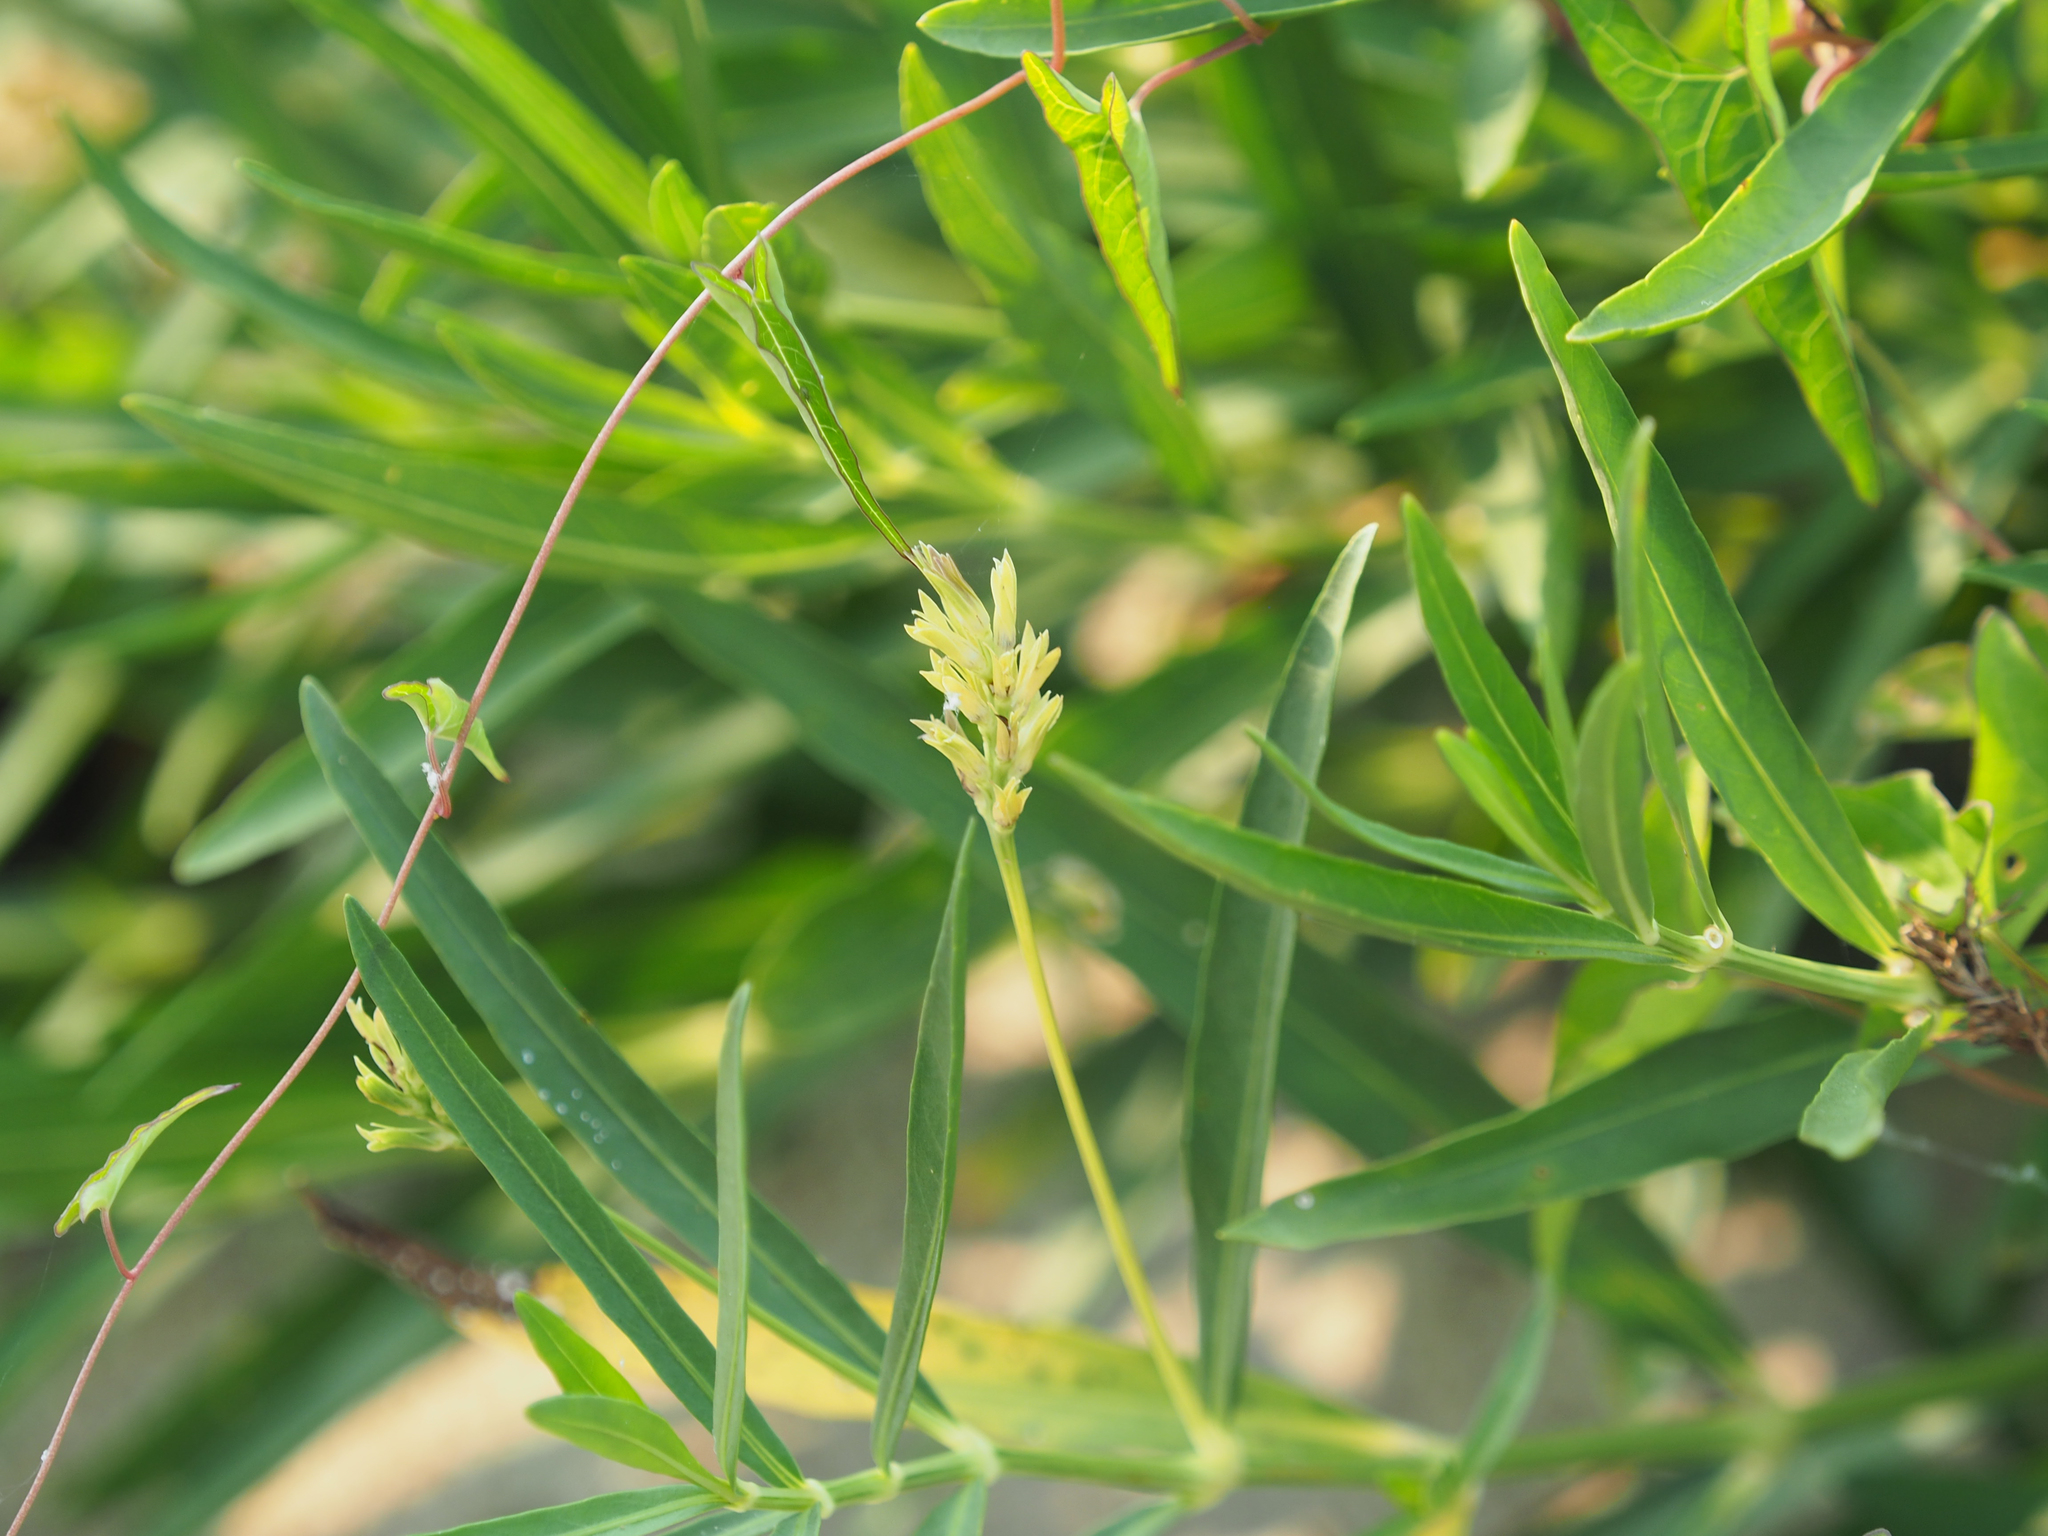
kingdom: Plantae
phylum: Tracheophyta
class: Magnoliopsida
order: Lamiales
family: Acanthaceae
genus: Dianthera
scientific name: Dianthera americana
